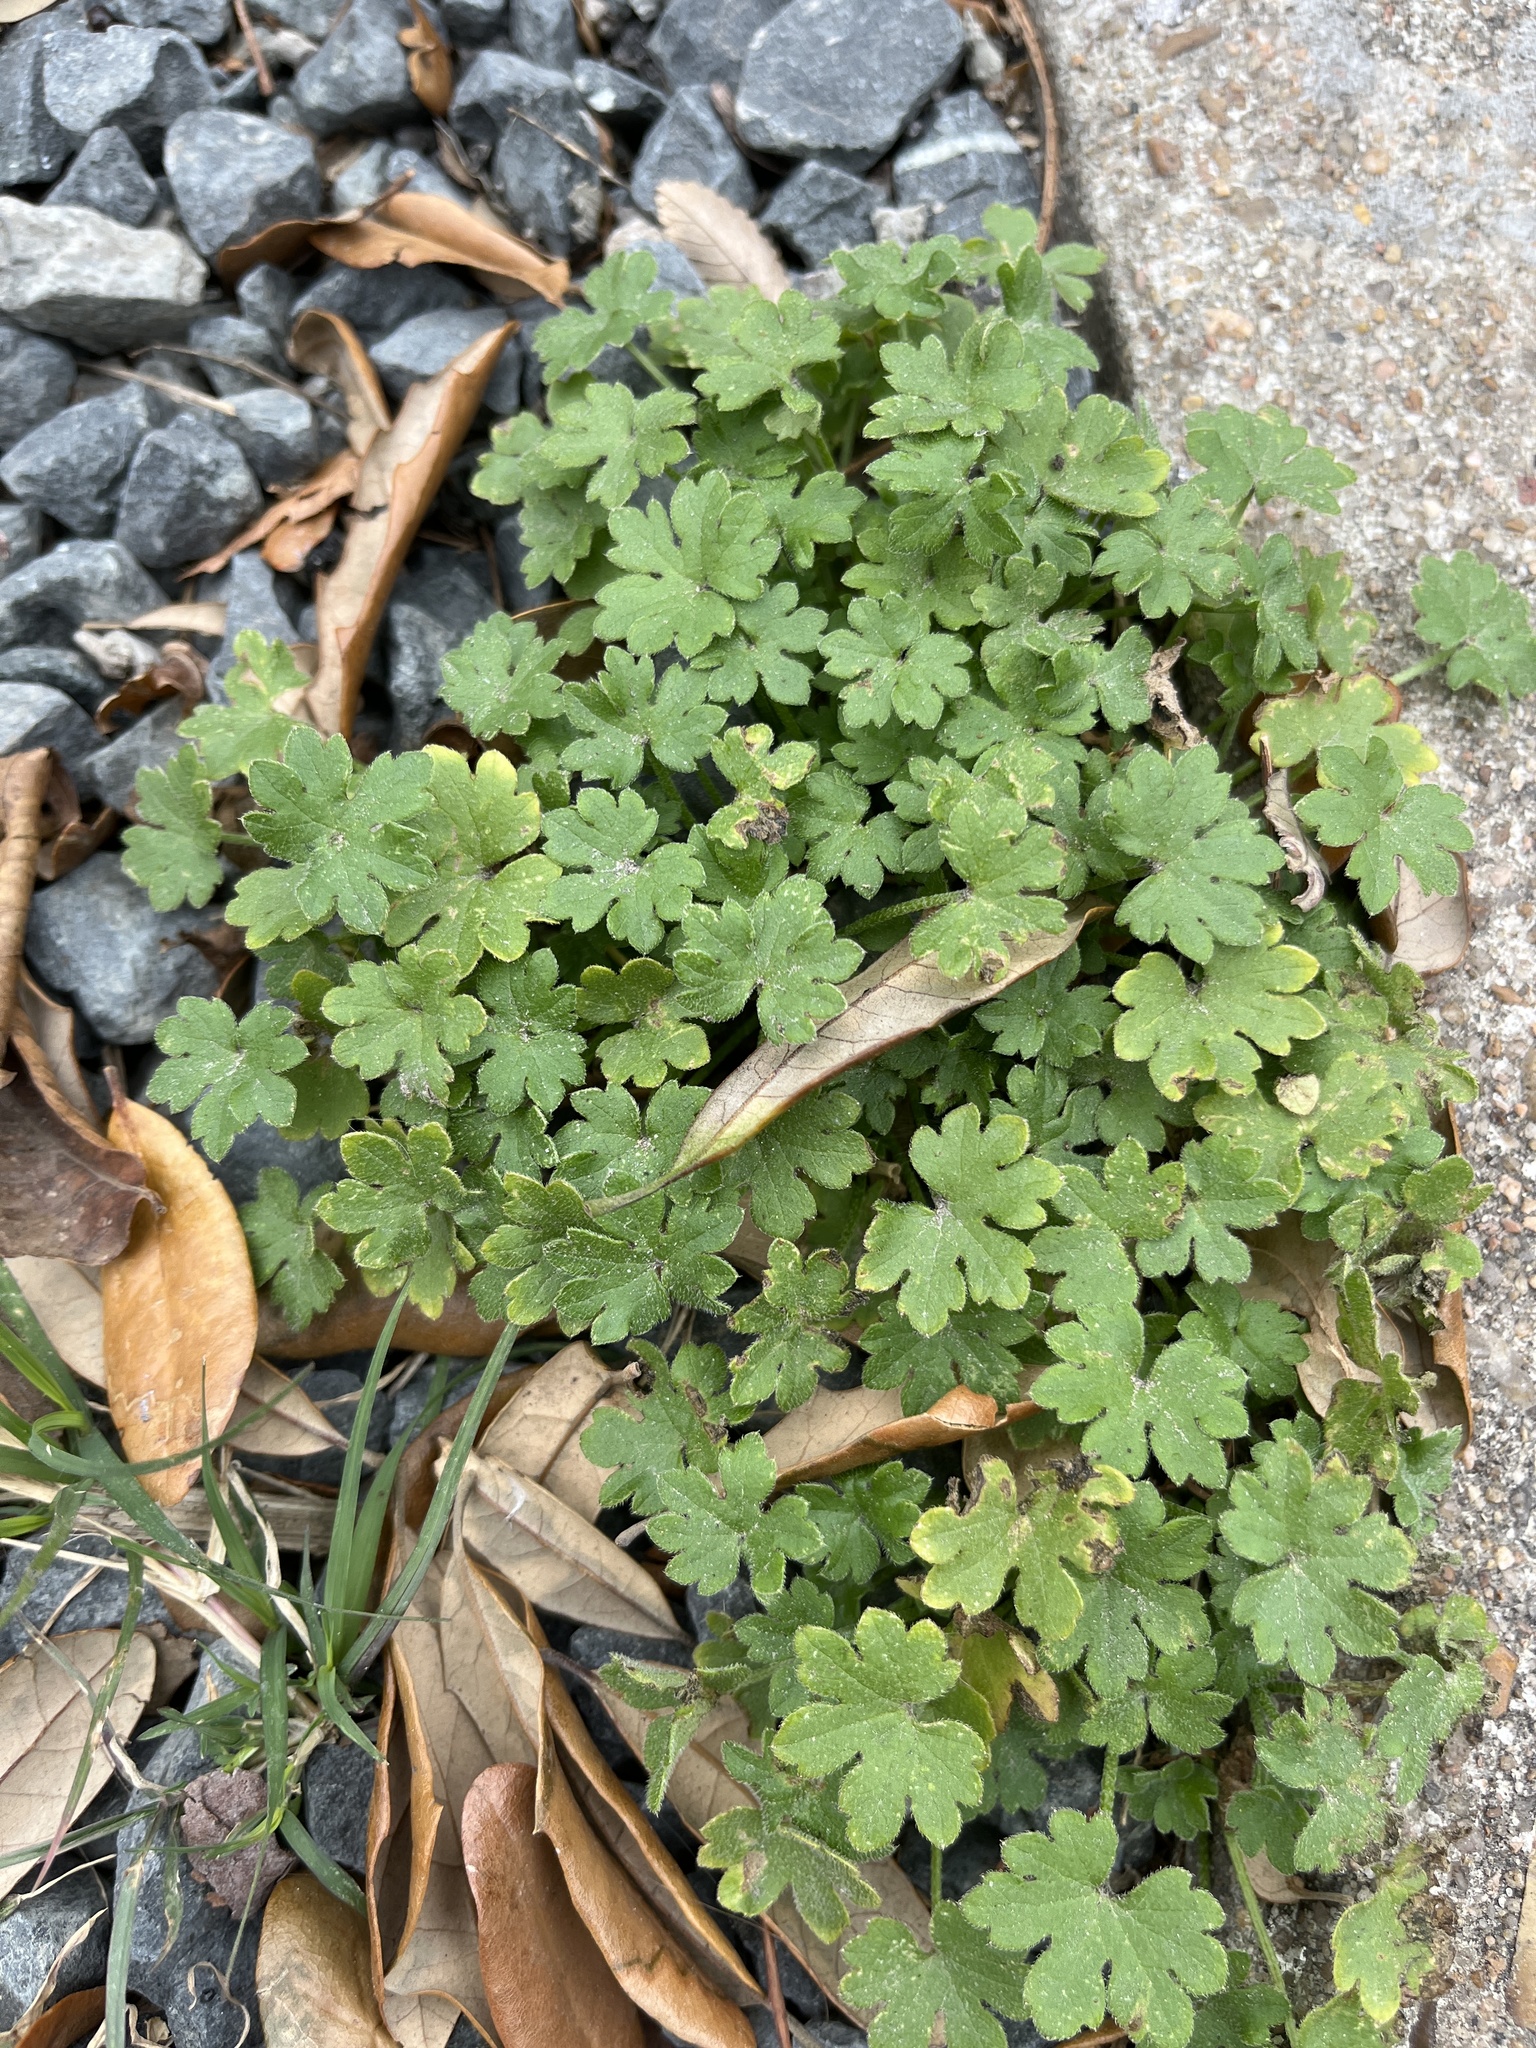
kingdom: Plantae
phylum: Tracheophyta
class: Magnoliopsida
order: Apiales
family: Apiaceae
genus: Bowlesia
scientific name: Bowlesia incana
